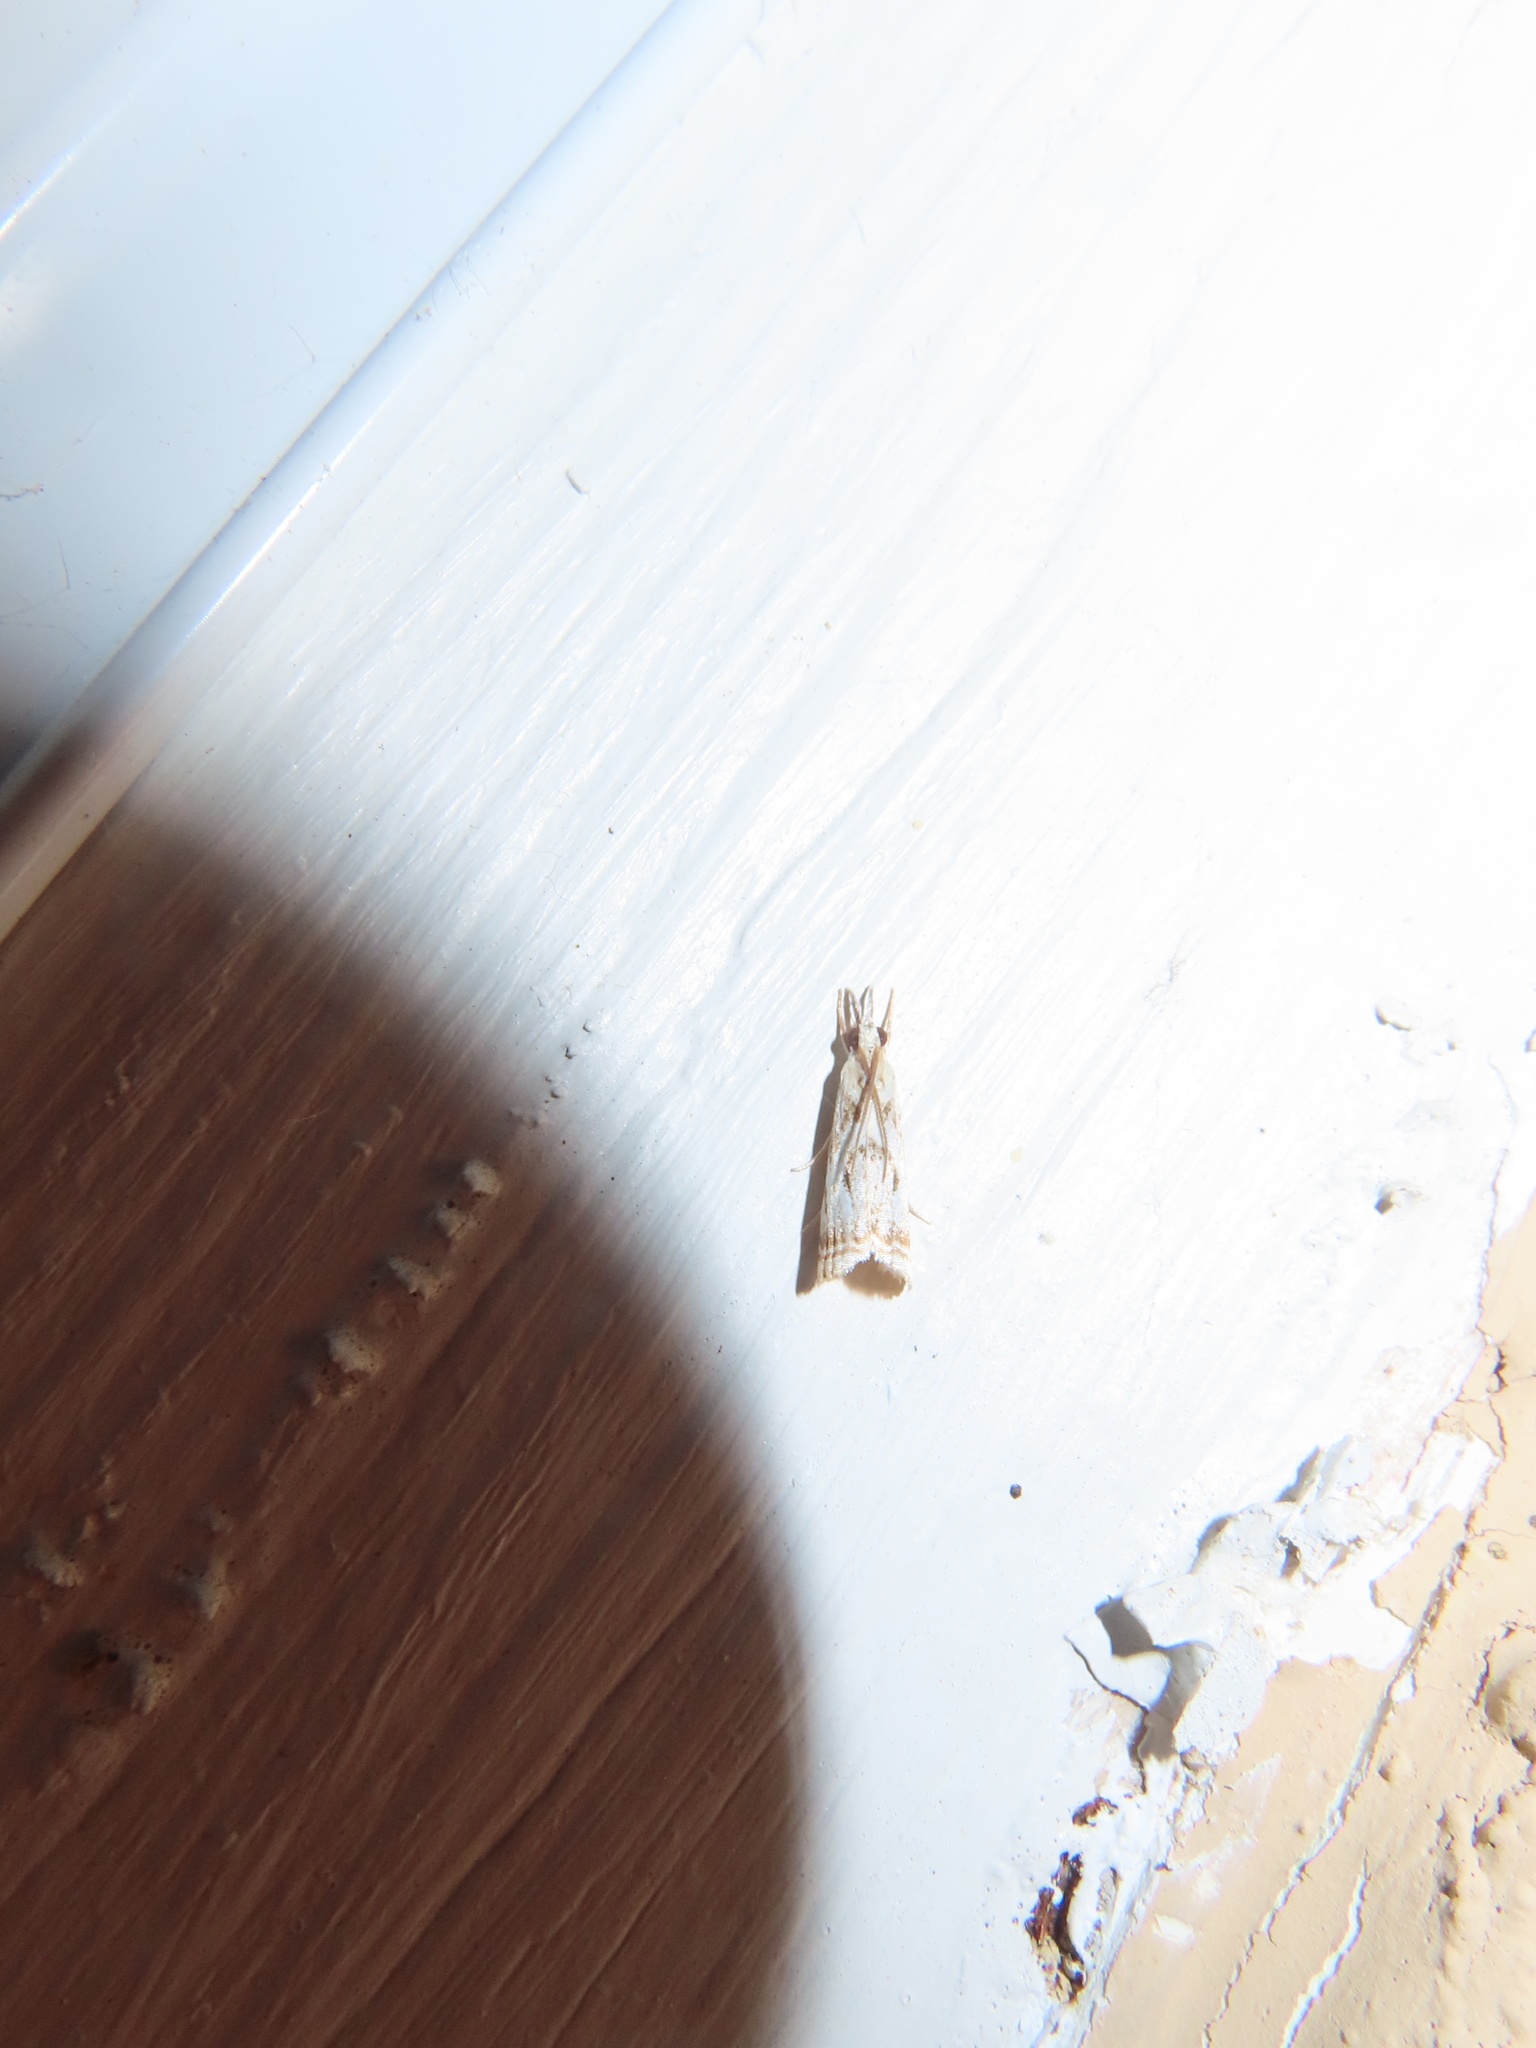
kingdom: Animalia
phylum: Arthropoda
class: Insecta
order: Lepidoptera
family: Crambidae
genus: Microcrambus
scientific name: Microcrambus elegans
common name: Elegant grass-veneer
